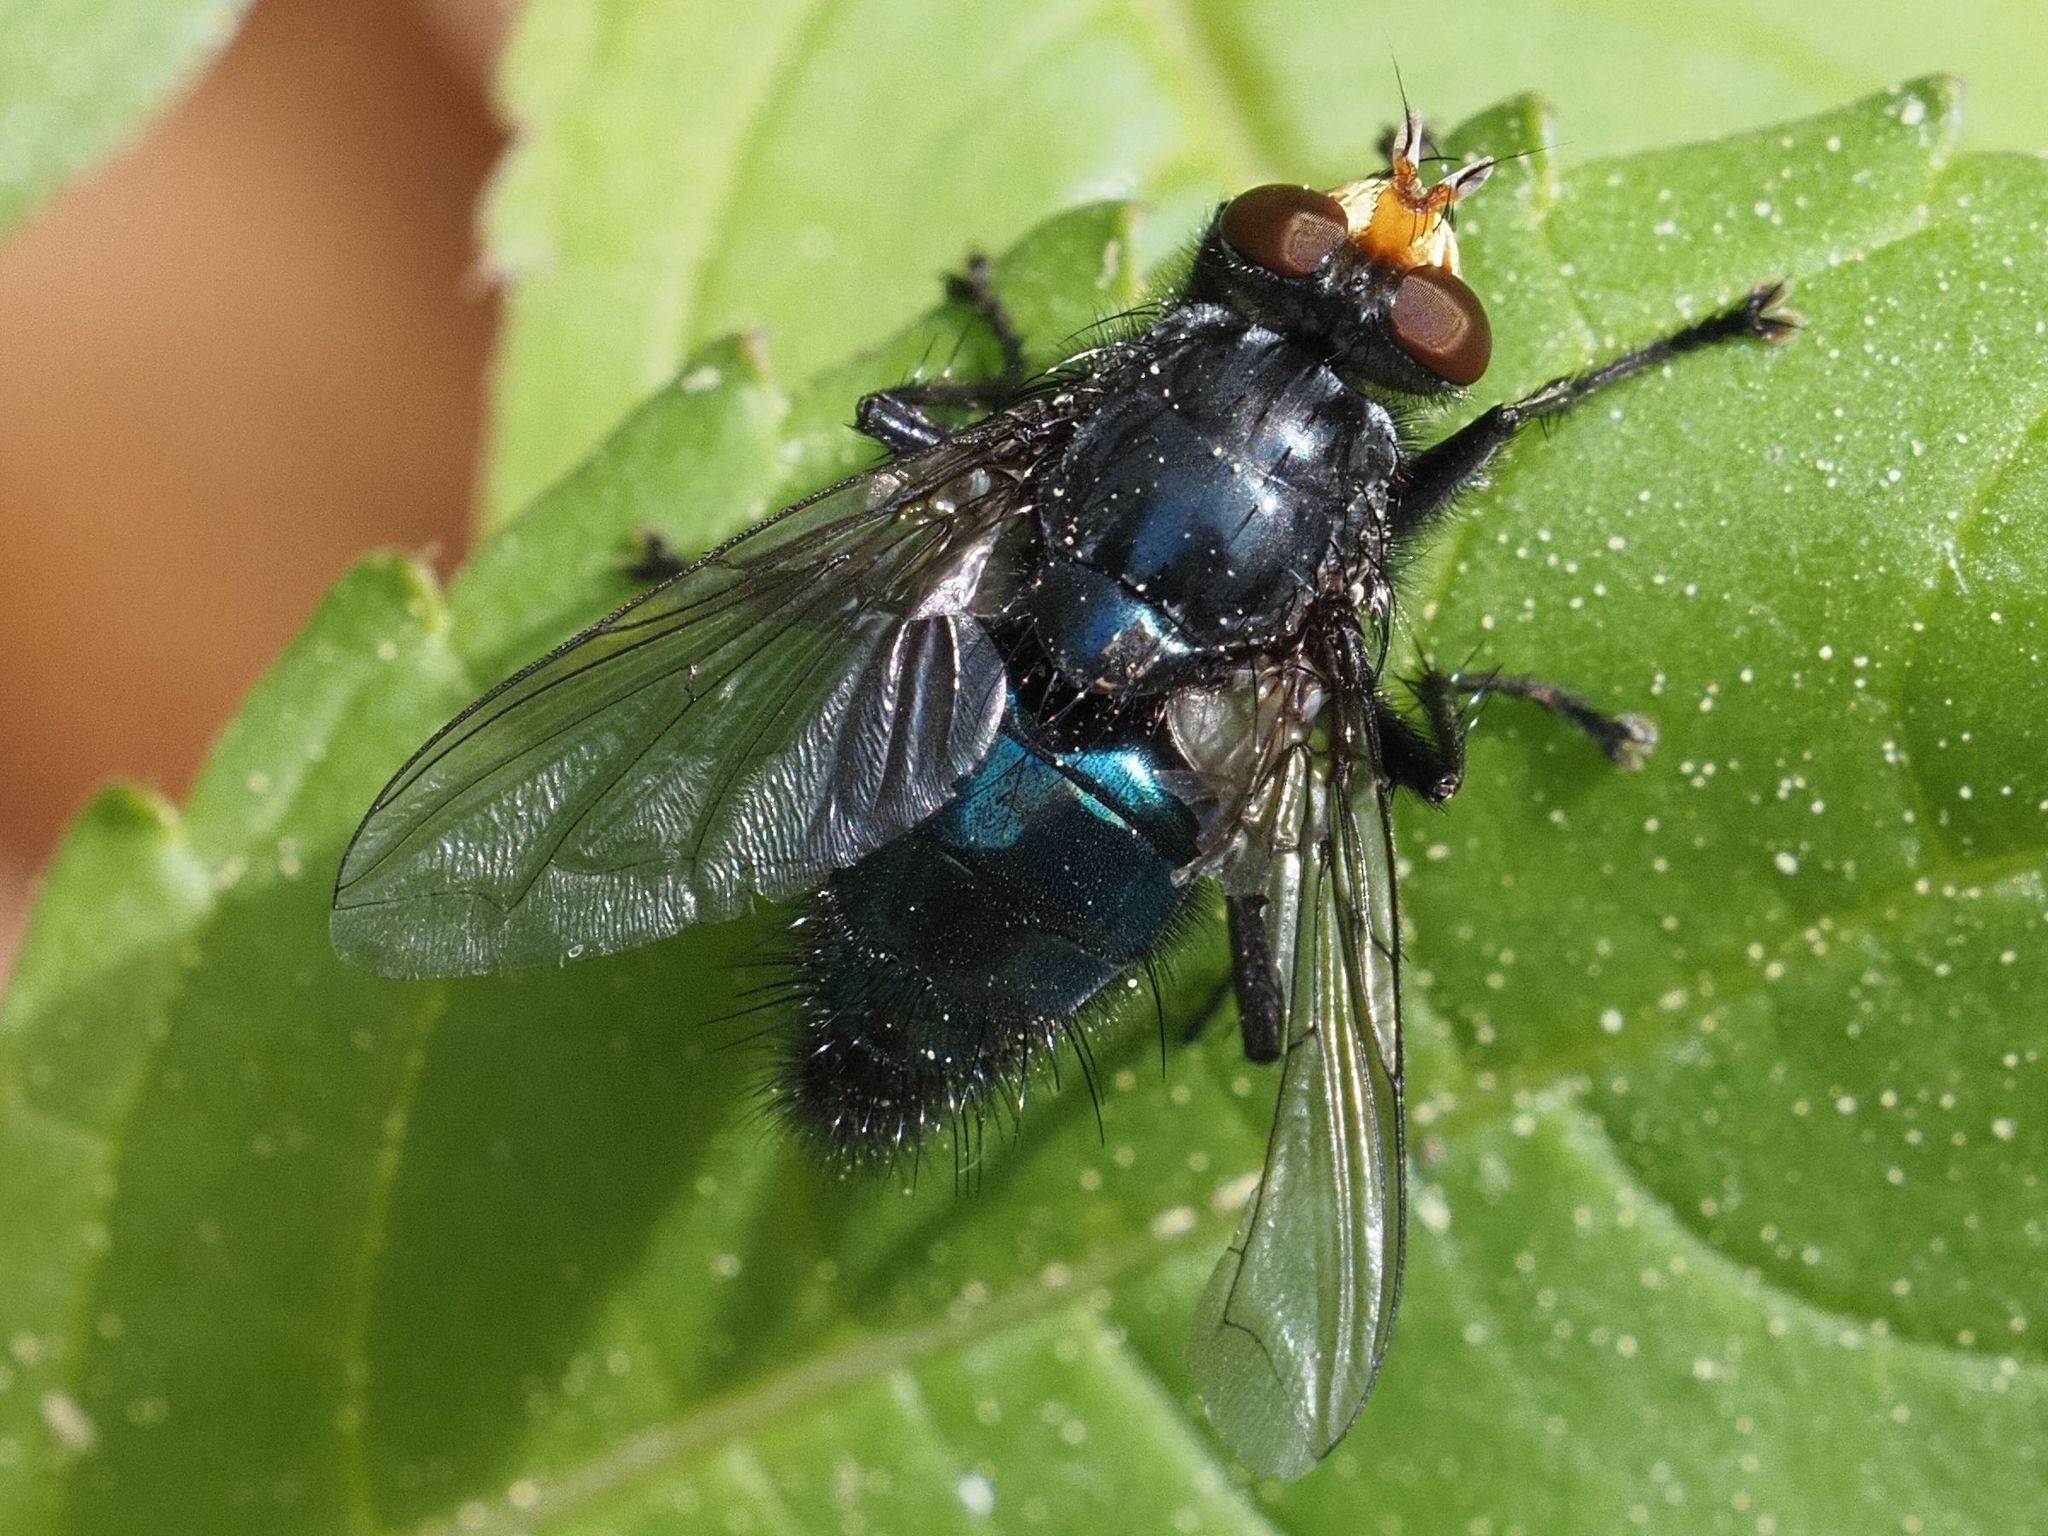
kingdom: Animalia
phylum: Arthropoda
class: Insecta
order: Diptera
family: Calliphoridae
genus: Cynomya
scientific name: Cynomya mortuorum
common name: Bluebottle blow fly
